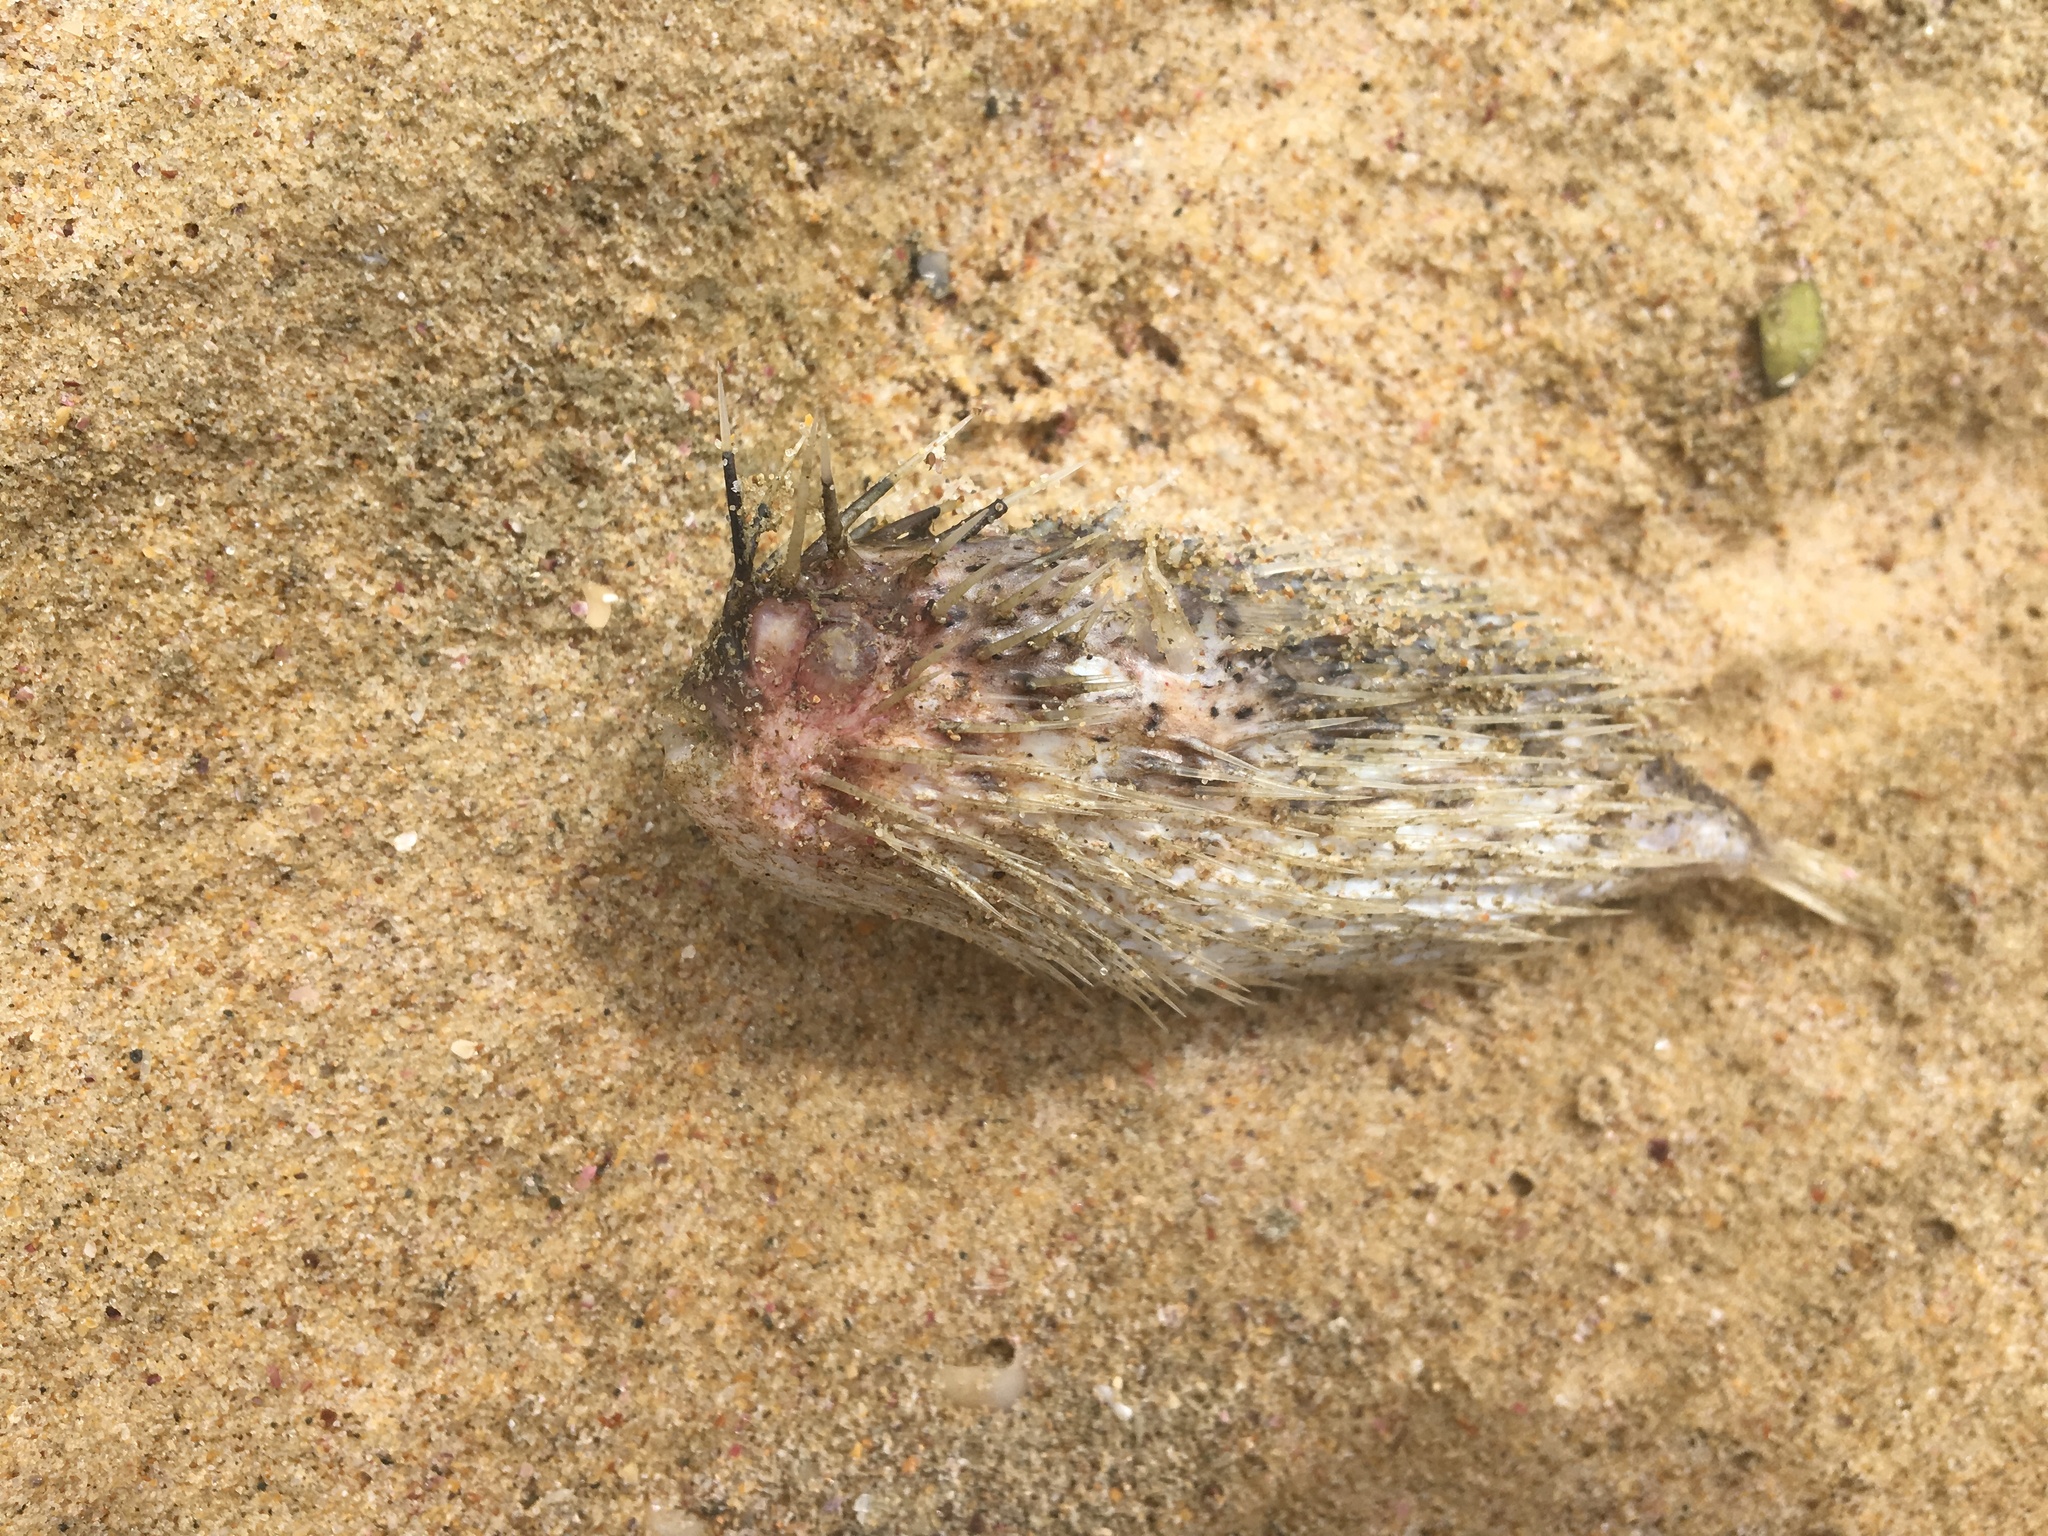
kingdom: Animalia
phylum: Chordata
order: Tetraodontiformes
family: Diodontidae
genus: Diodon
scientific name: Diodon holocanthus
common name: Balloonfish
